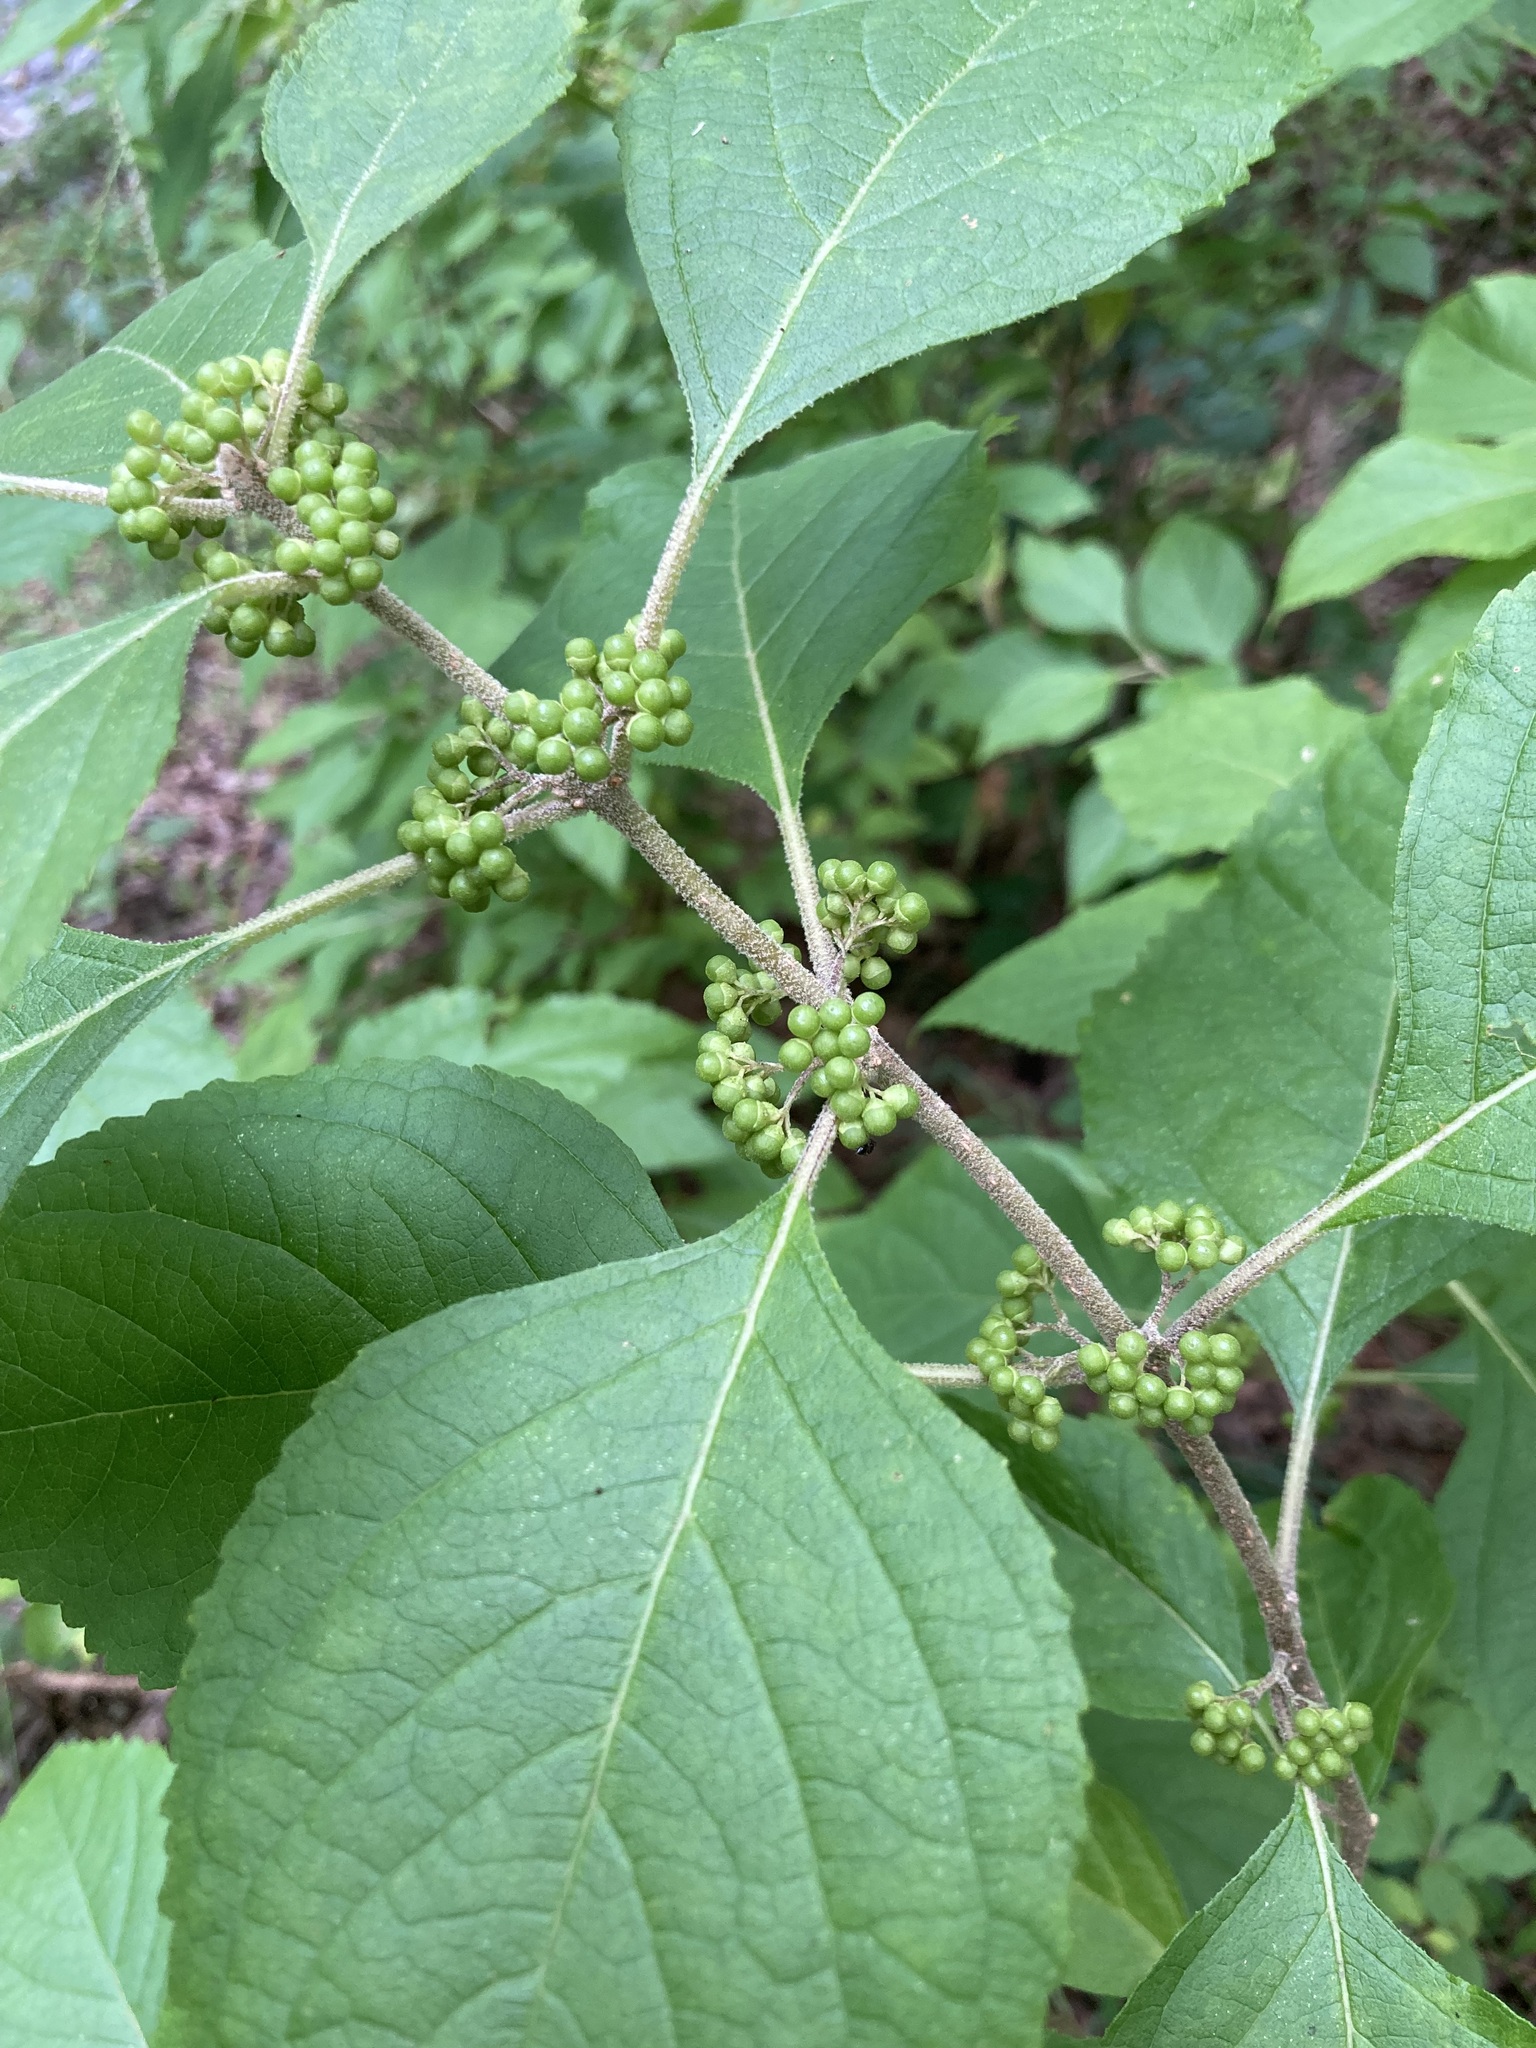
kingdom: Plantae
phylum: Tracheophyta
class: Magnoliopsida
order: Lamiales
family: Lamiaceae
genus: Callicarpa
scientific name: Callicarpa americana
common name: American beautyberry
